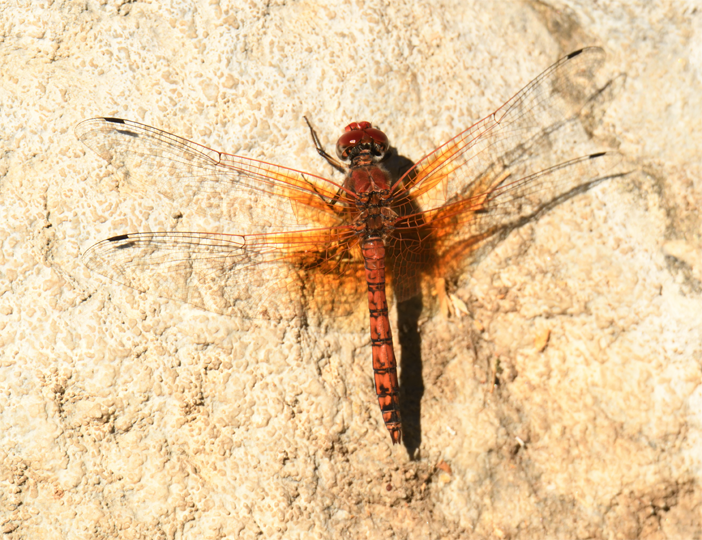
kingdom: Animalia
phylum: Arthropoda
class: Insecta
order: Odonata
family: Libellulidae
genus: Paltothemis
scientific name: Paltothemis lineatipes
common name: Red rock skimmer
